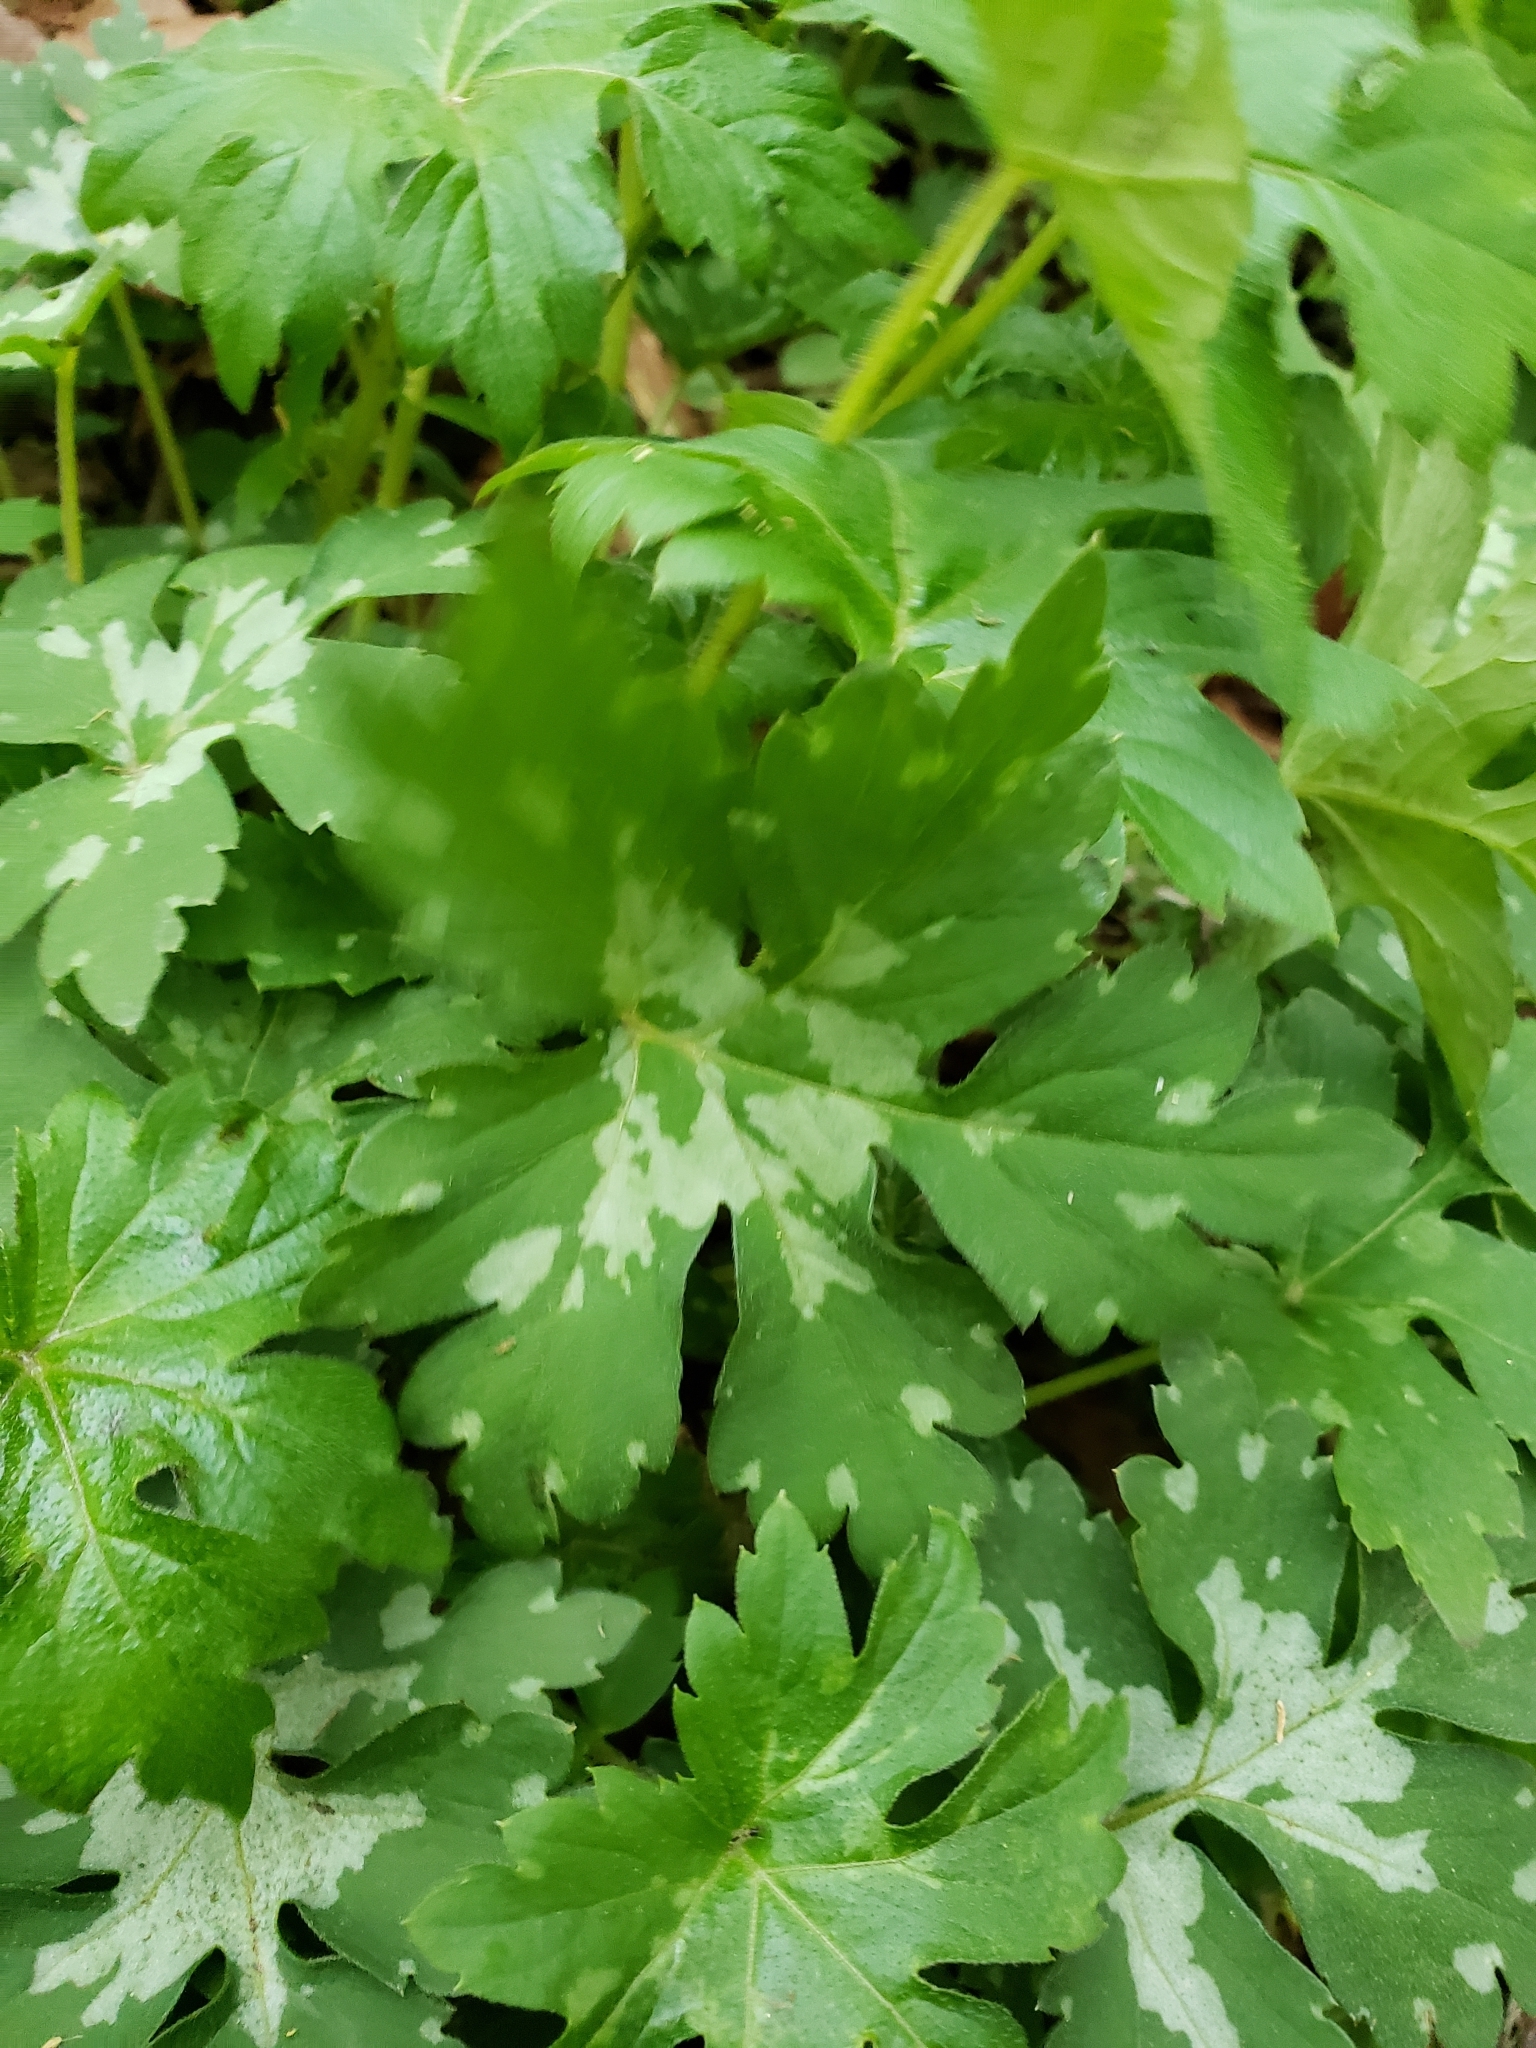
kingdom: Plantae
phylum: Tracheophyta
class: Magnoliopsida
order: Boraginales
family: Hydrophyllaceae
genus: Hydrophyllum
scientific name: Hydrophyllum canadense
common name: Canada waterleaf
